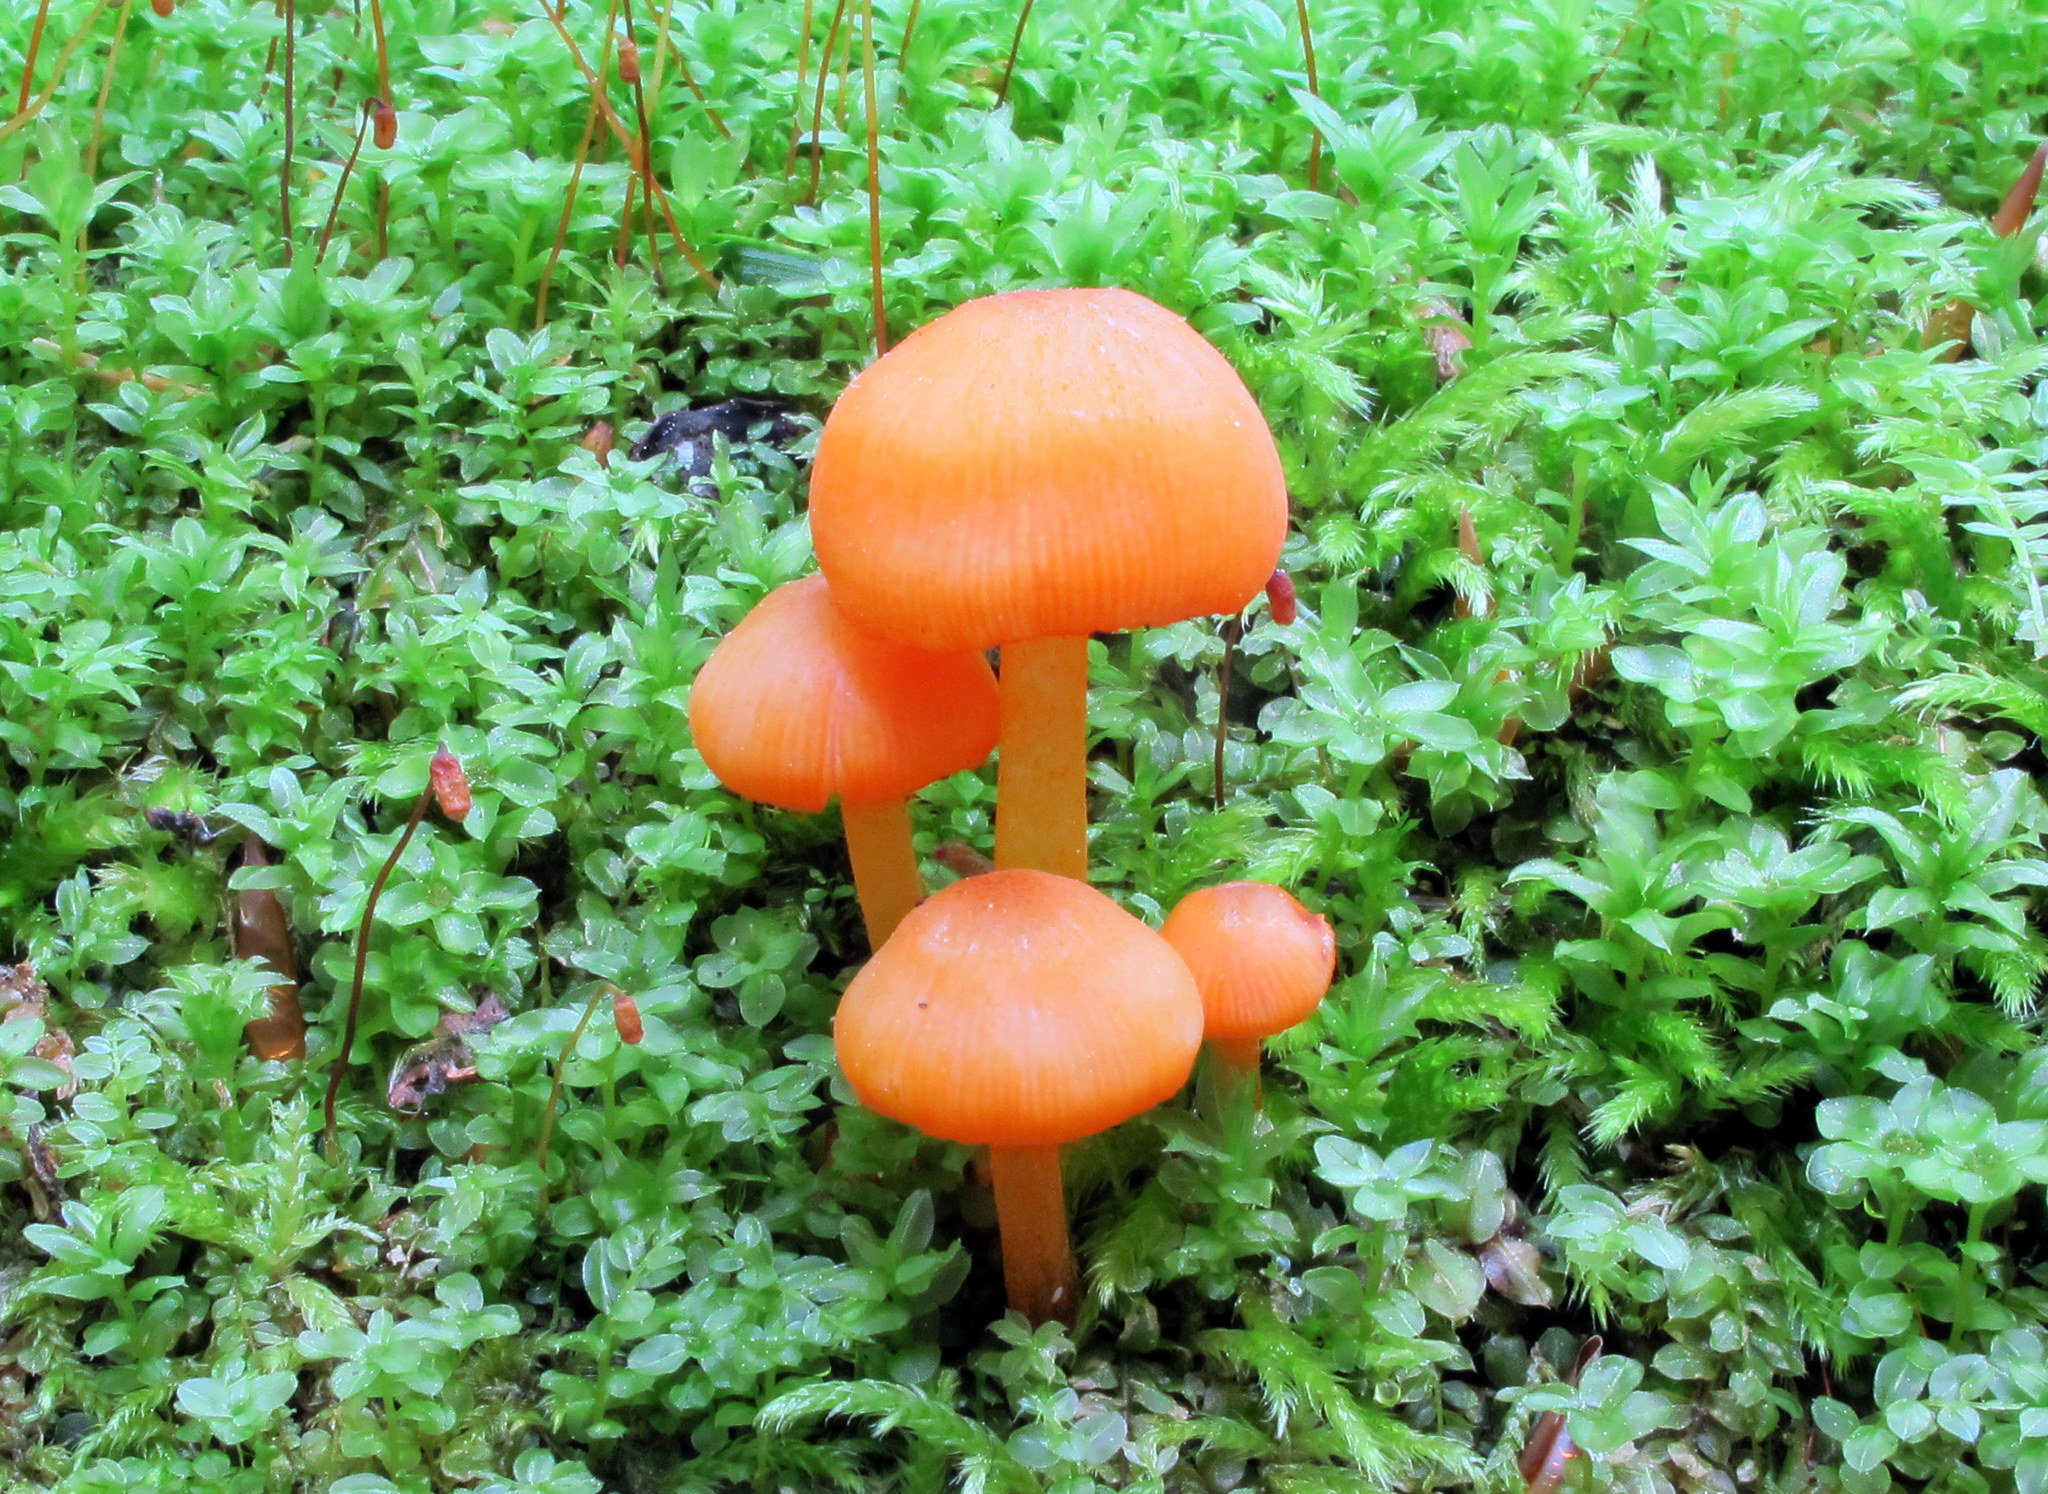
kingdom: Fungi
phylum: Basidiomycota
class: Agaricomycetes
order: Agaricales
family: Mycenaceae
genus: Mycena
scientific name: Mycena leaiana
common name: Orange mycena
